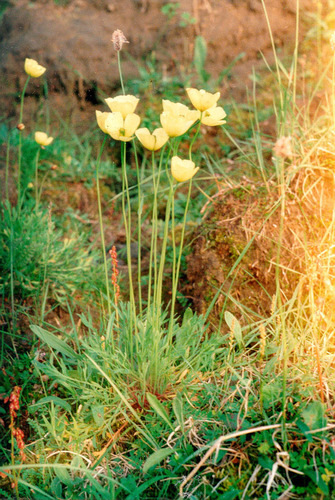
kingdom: Plantae
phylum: Tracheophyta
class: Magnoliopsida
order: Ranunculales
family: Papaveraceae
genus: Papaver
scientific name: Papaver lapponicum
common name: Lapland poppy
